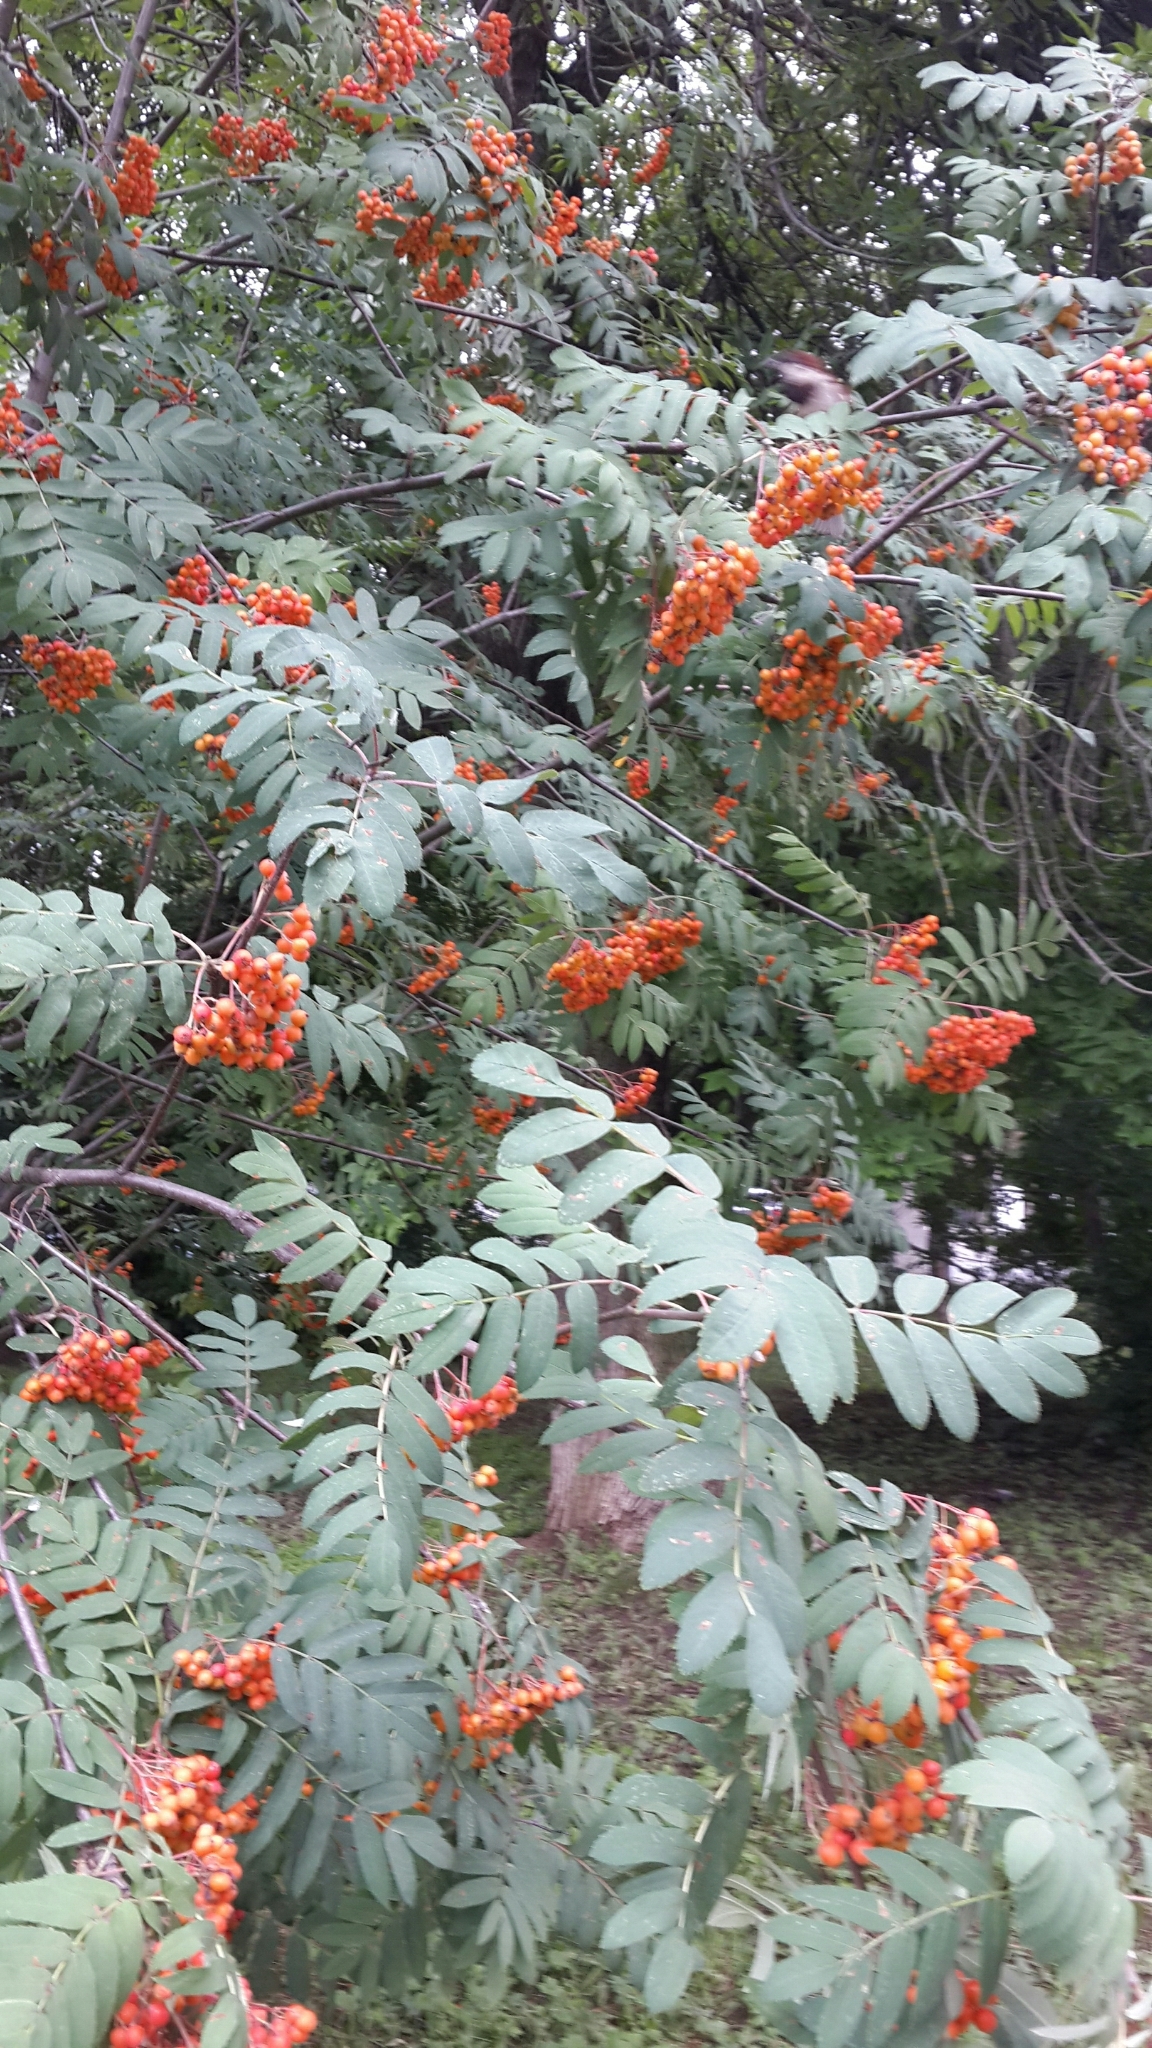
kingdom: Plantae
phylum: Tracheophyta
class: Magnoliopsida
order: Rosales
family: Rosaceae
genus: Sorbus
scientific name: Sorbus aucuparia
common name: Rowan
